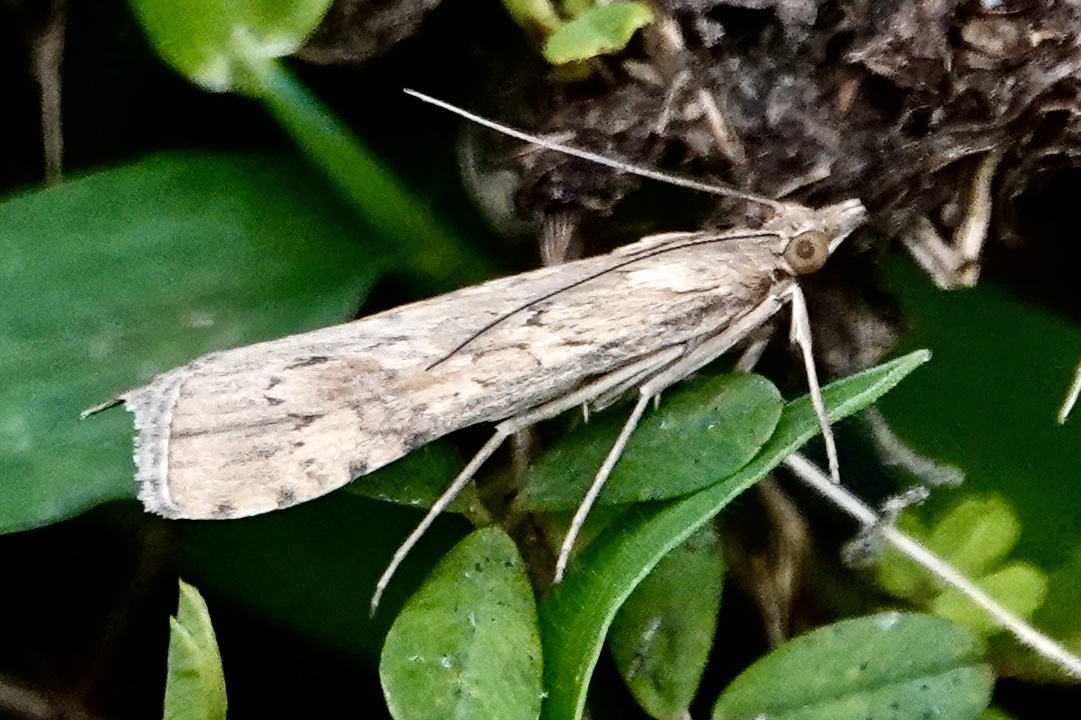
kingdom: Animalia
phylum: Arthropoda
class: Insecta
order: Lepidoptera
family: Crambidae
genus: Nomophila
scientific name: Nomophila nearctica
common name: American rush veneer
